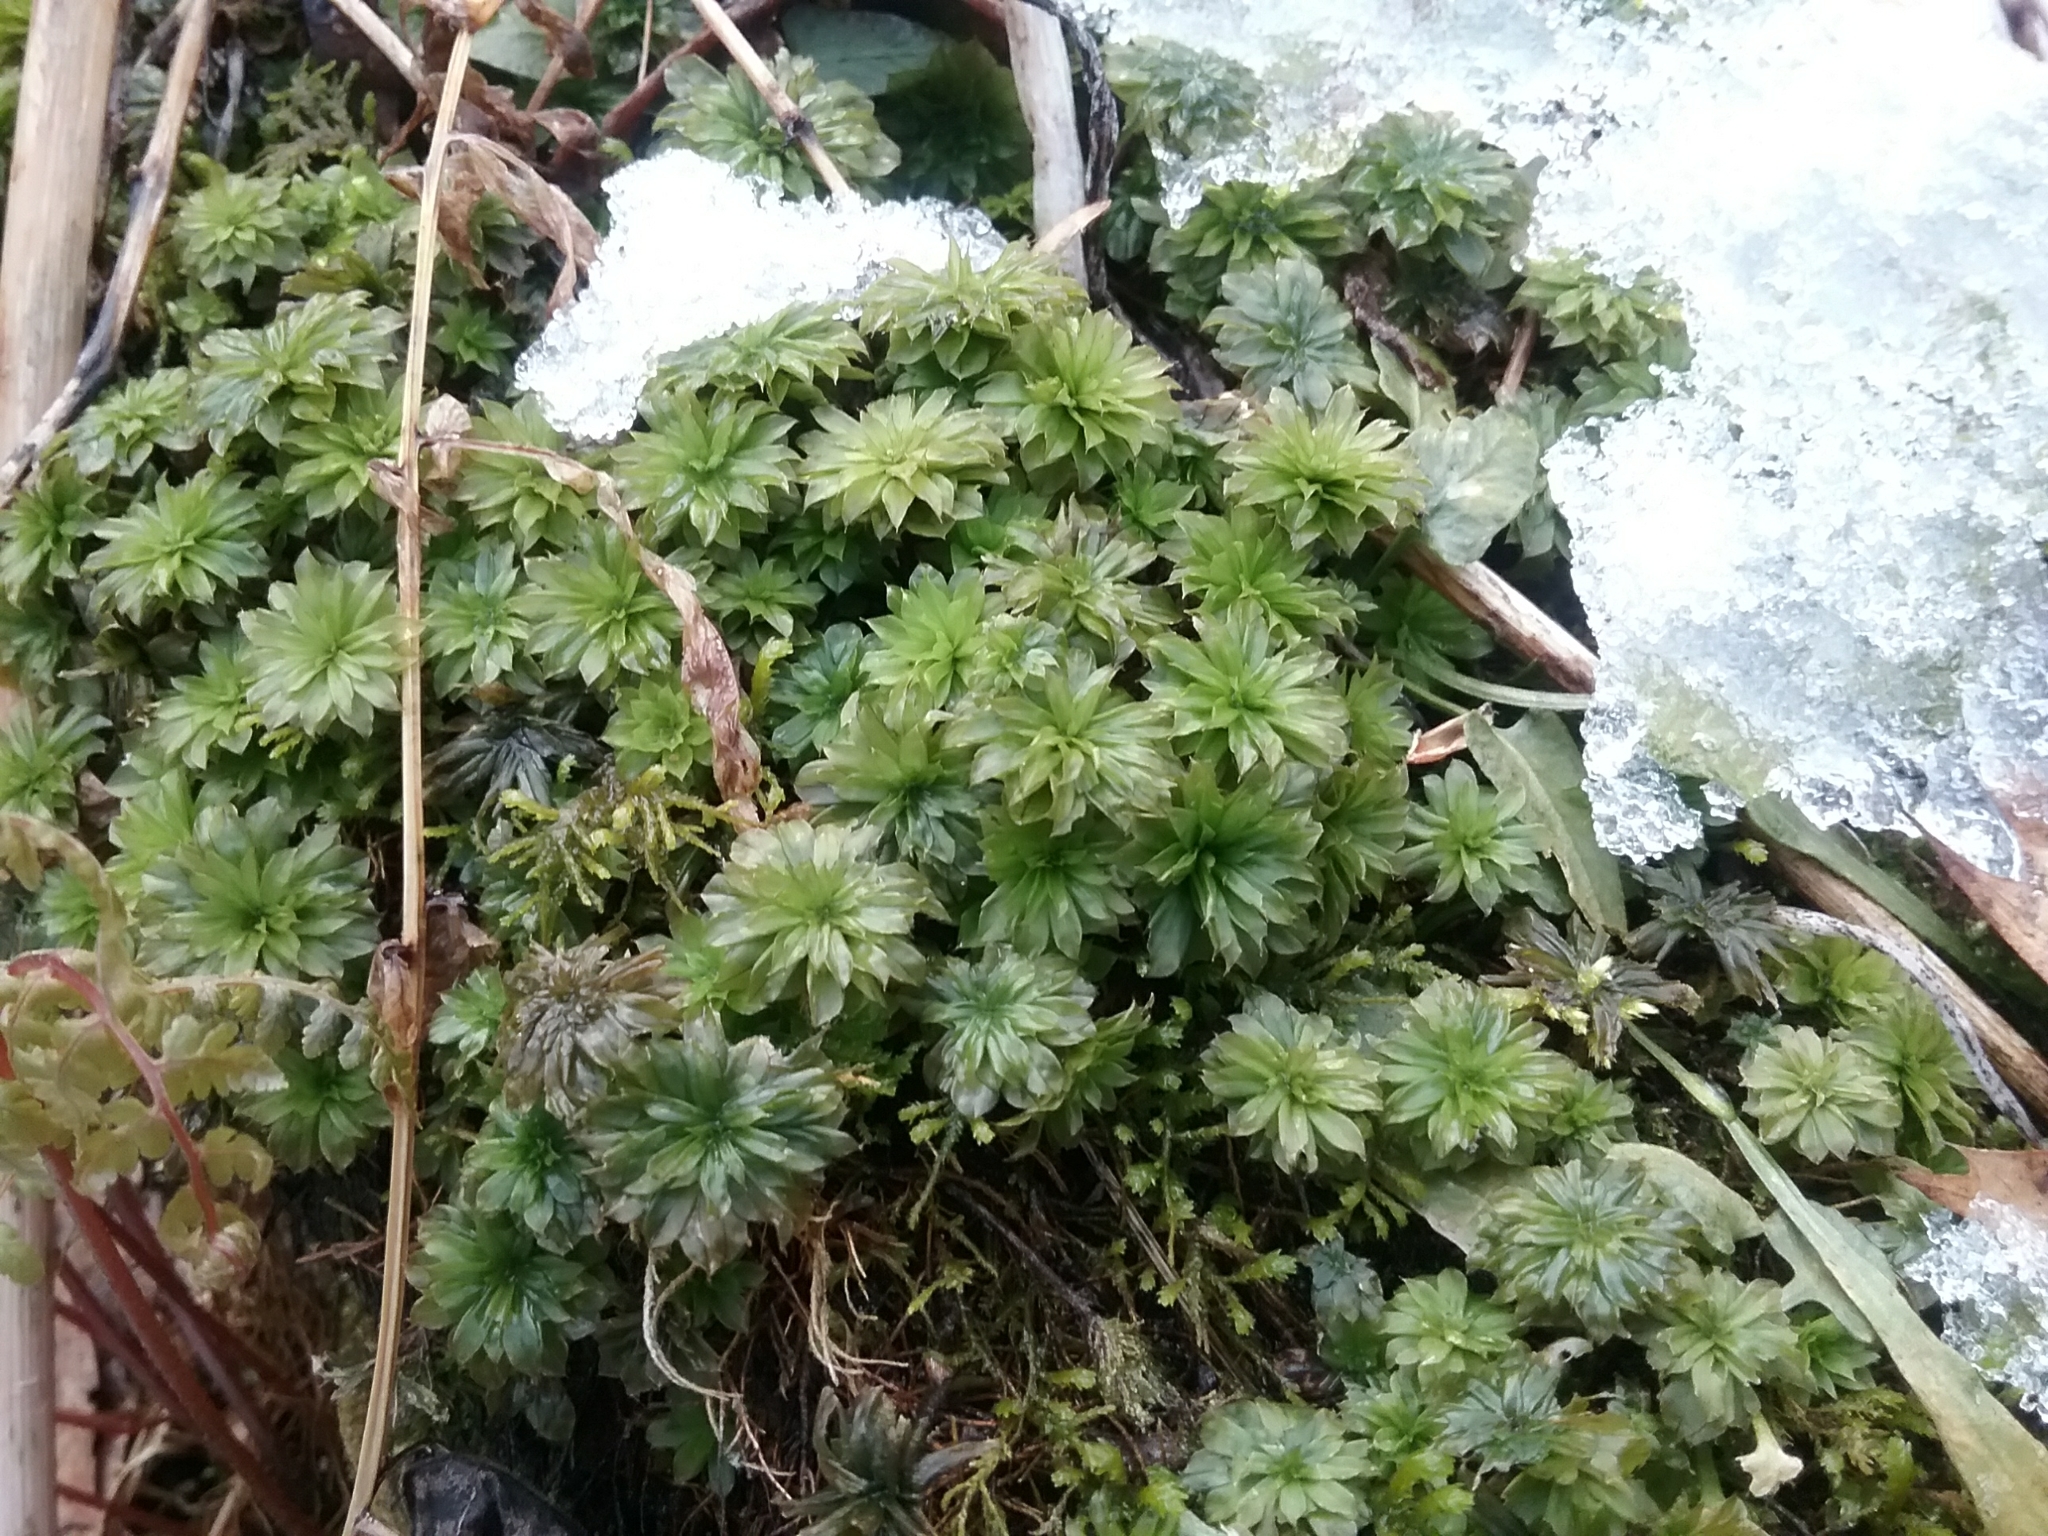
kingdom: Plantae
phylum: Bryophyta
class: Bryopsida
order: Bryales
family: Bryaceae
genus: Rhodobryum
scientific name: Rhodobryum ontariense
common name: Ontario rhodobryum moss
